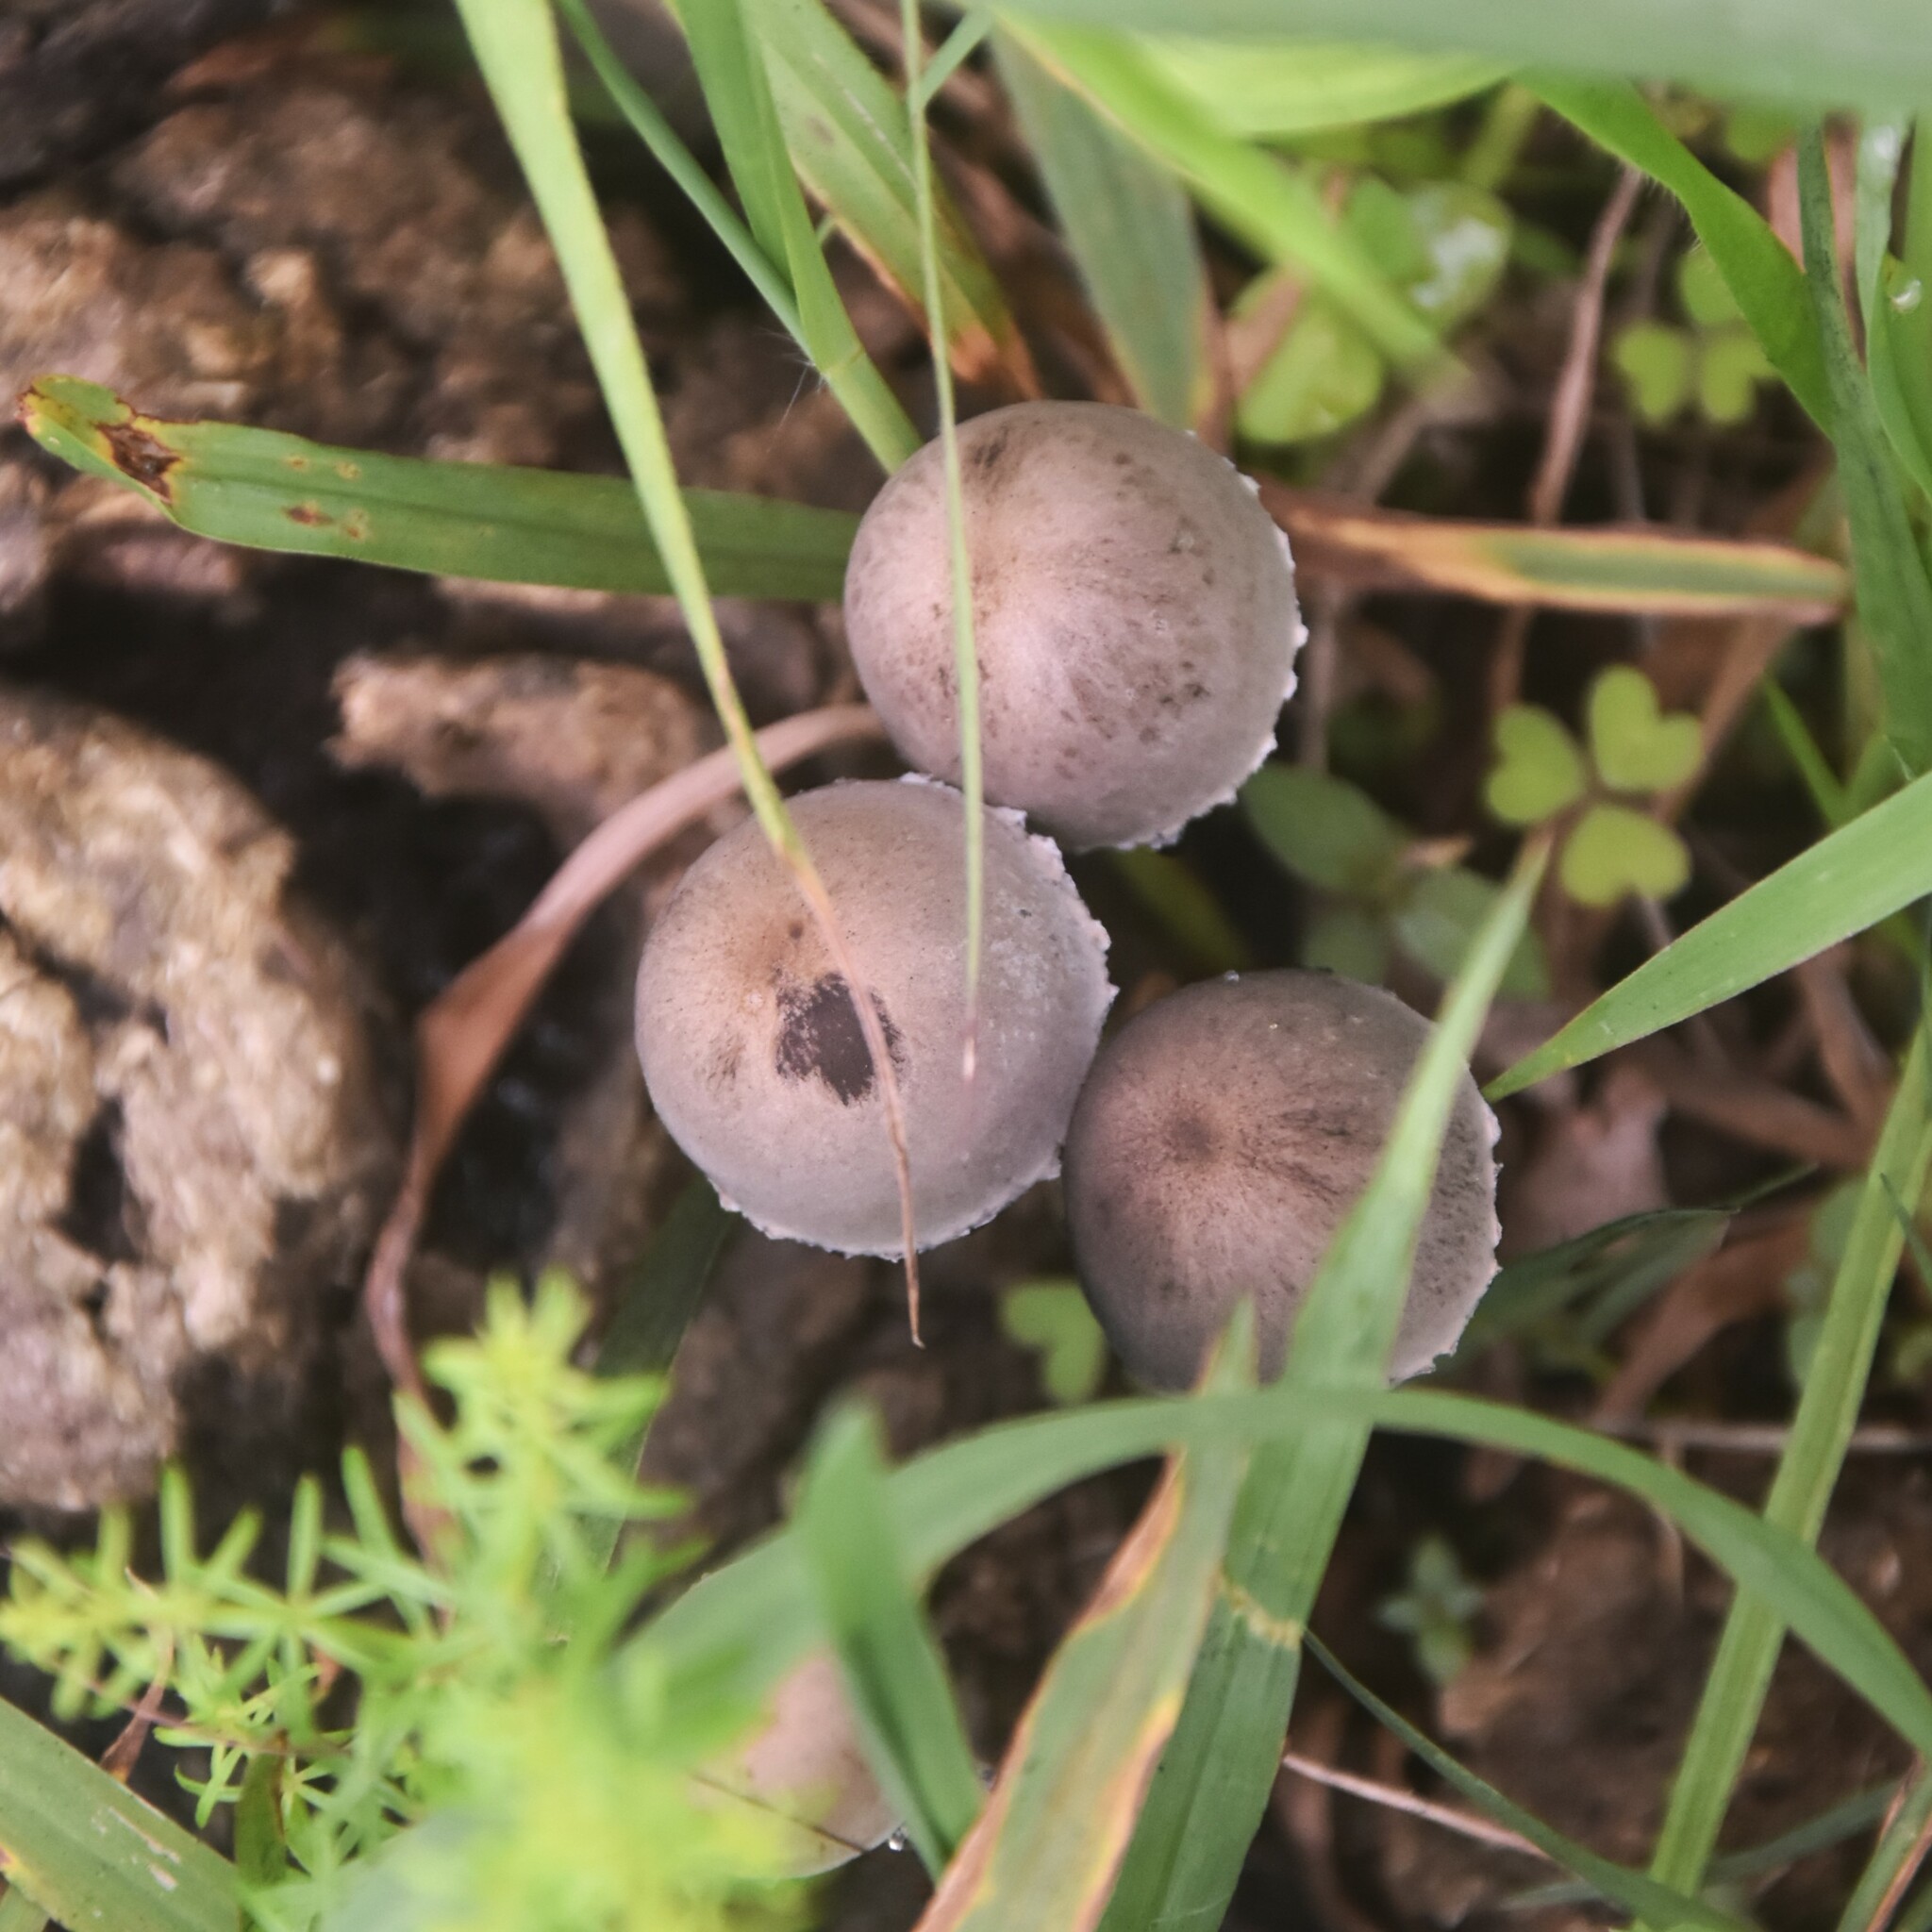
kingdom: Fungi
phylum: Basidiomycota
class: Agaricomycetes
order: Agaricales
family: Bolbitiaceae
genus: Panaeolus
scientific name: Panaeolus papilionaceus
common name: Petticoat mottlegill
